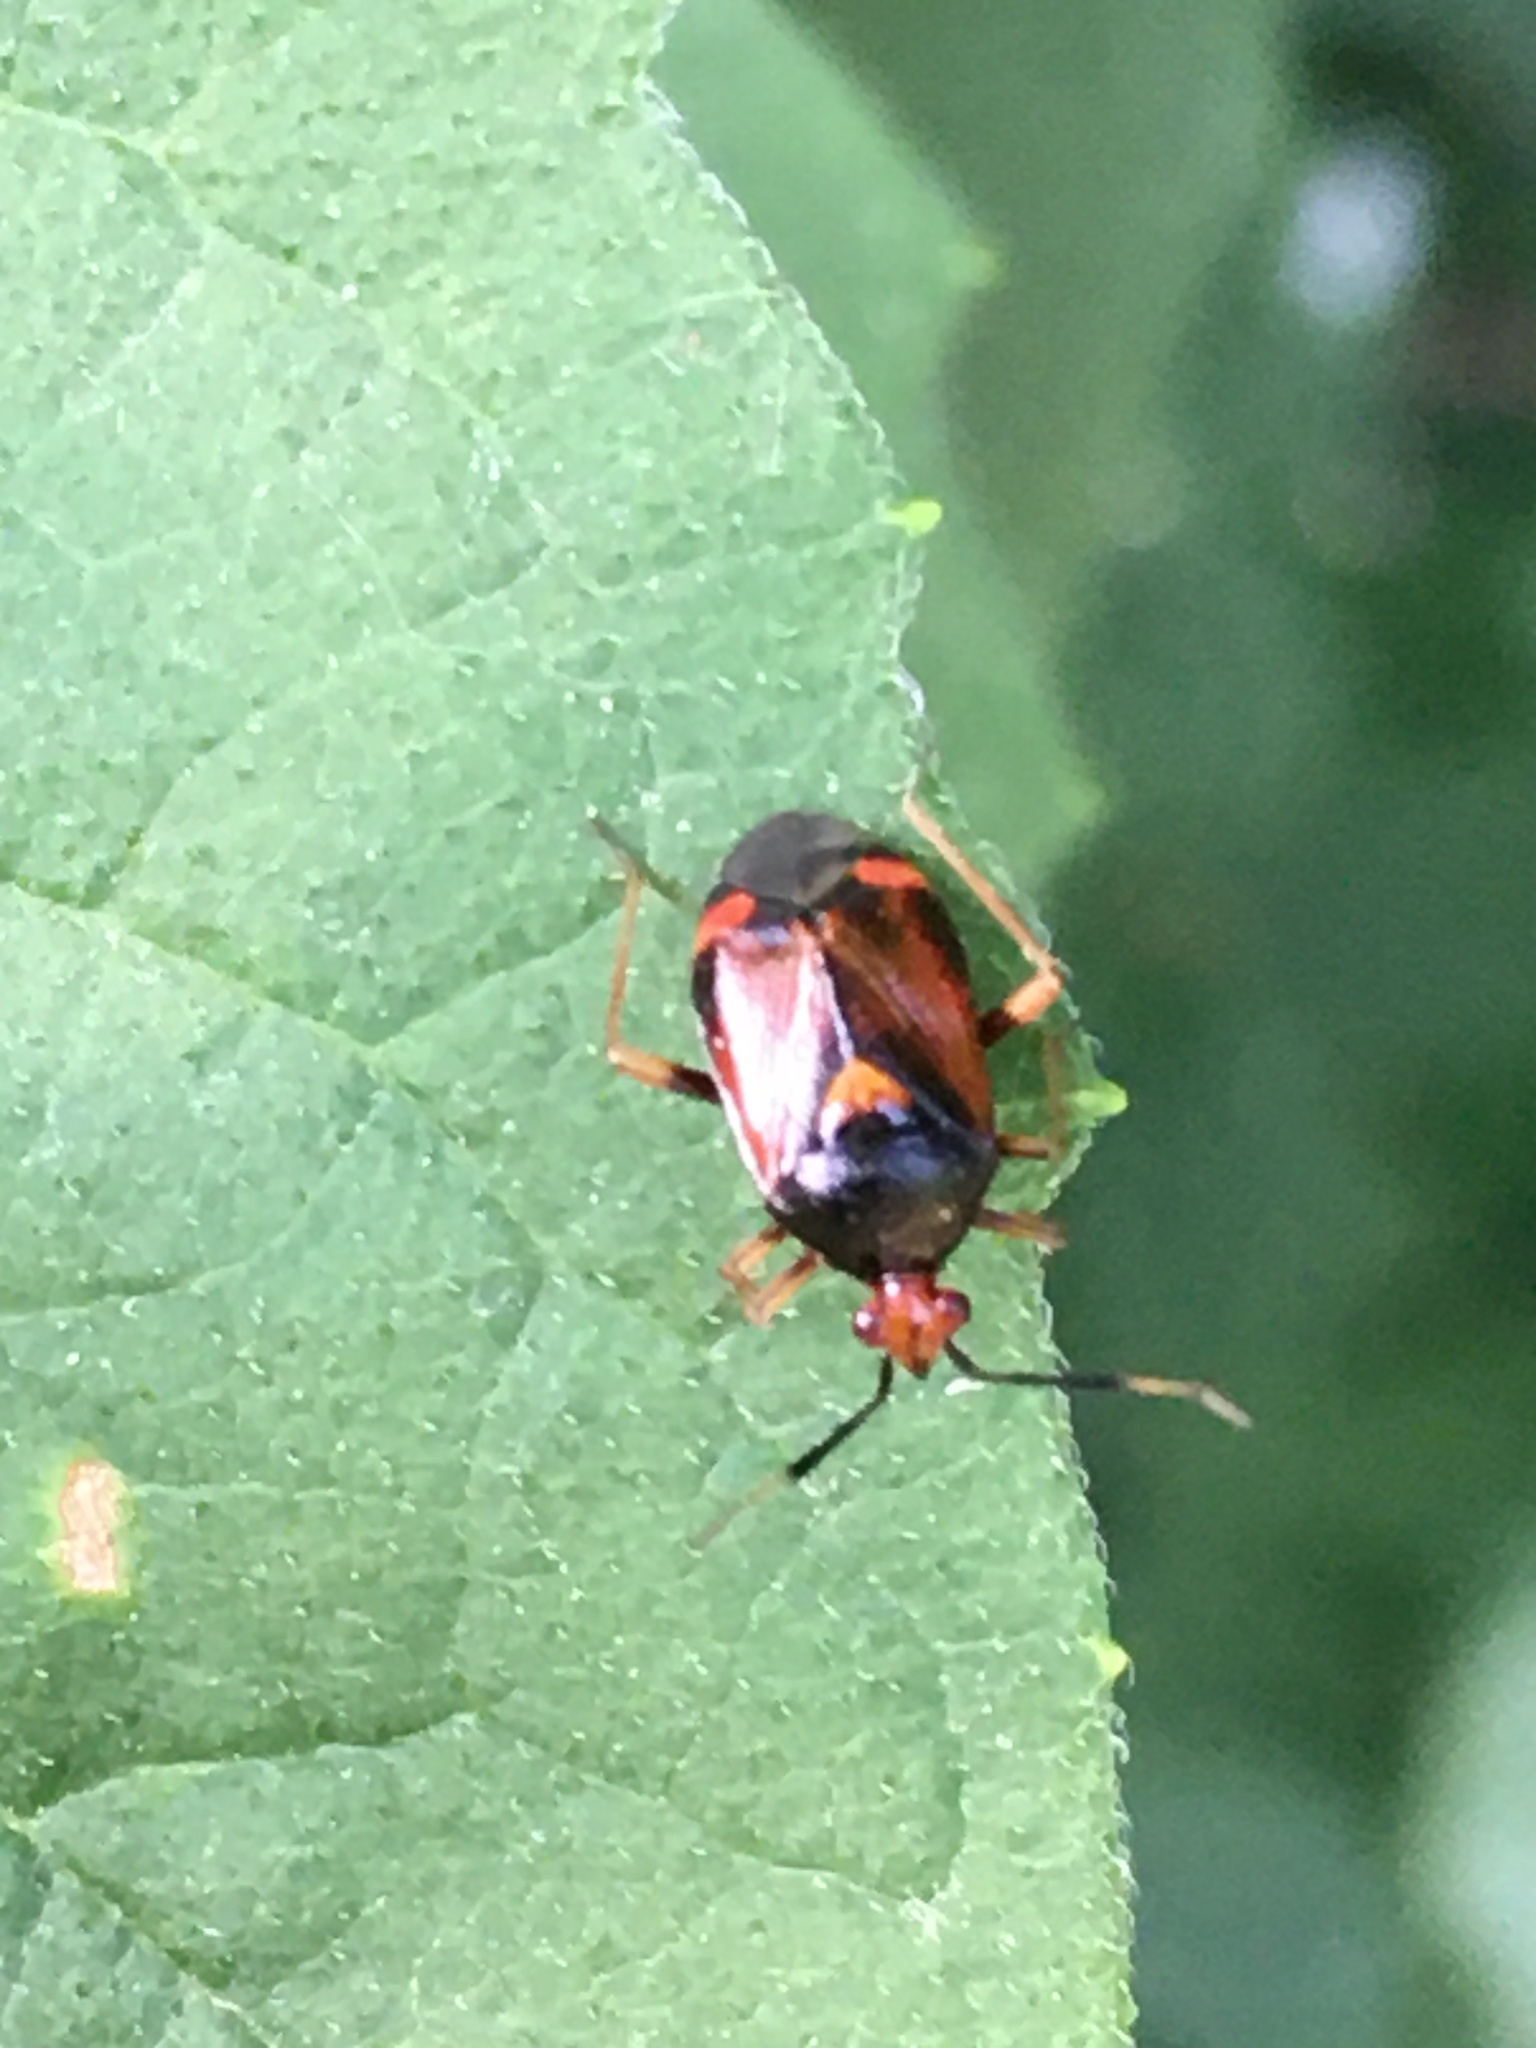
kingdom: Animalia
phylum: Arthropoda
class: Insecta
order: Hemiptera
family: Miridae
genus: Deraeocoris
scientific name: Deraeocoris ruber
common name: Plant bug
